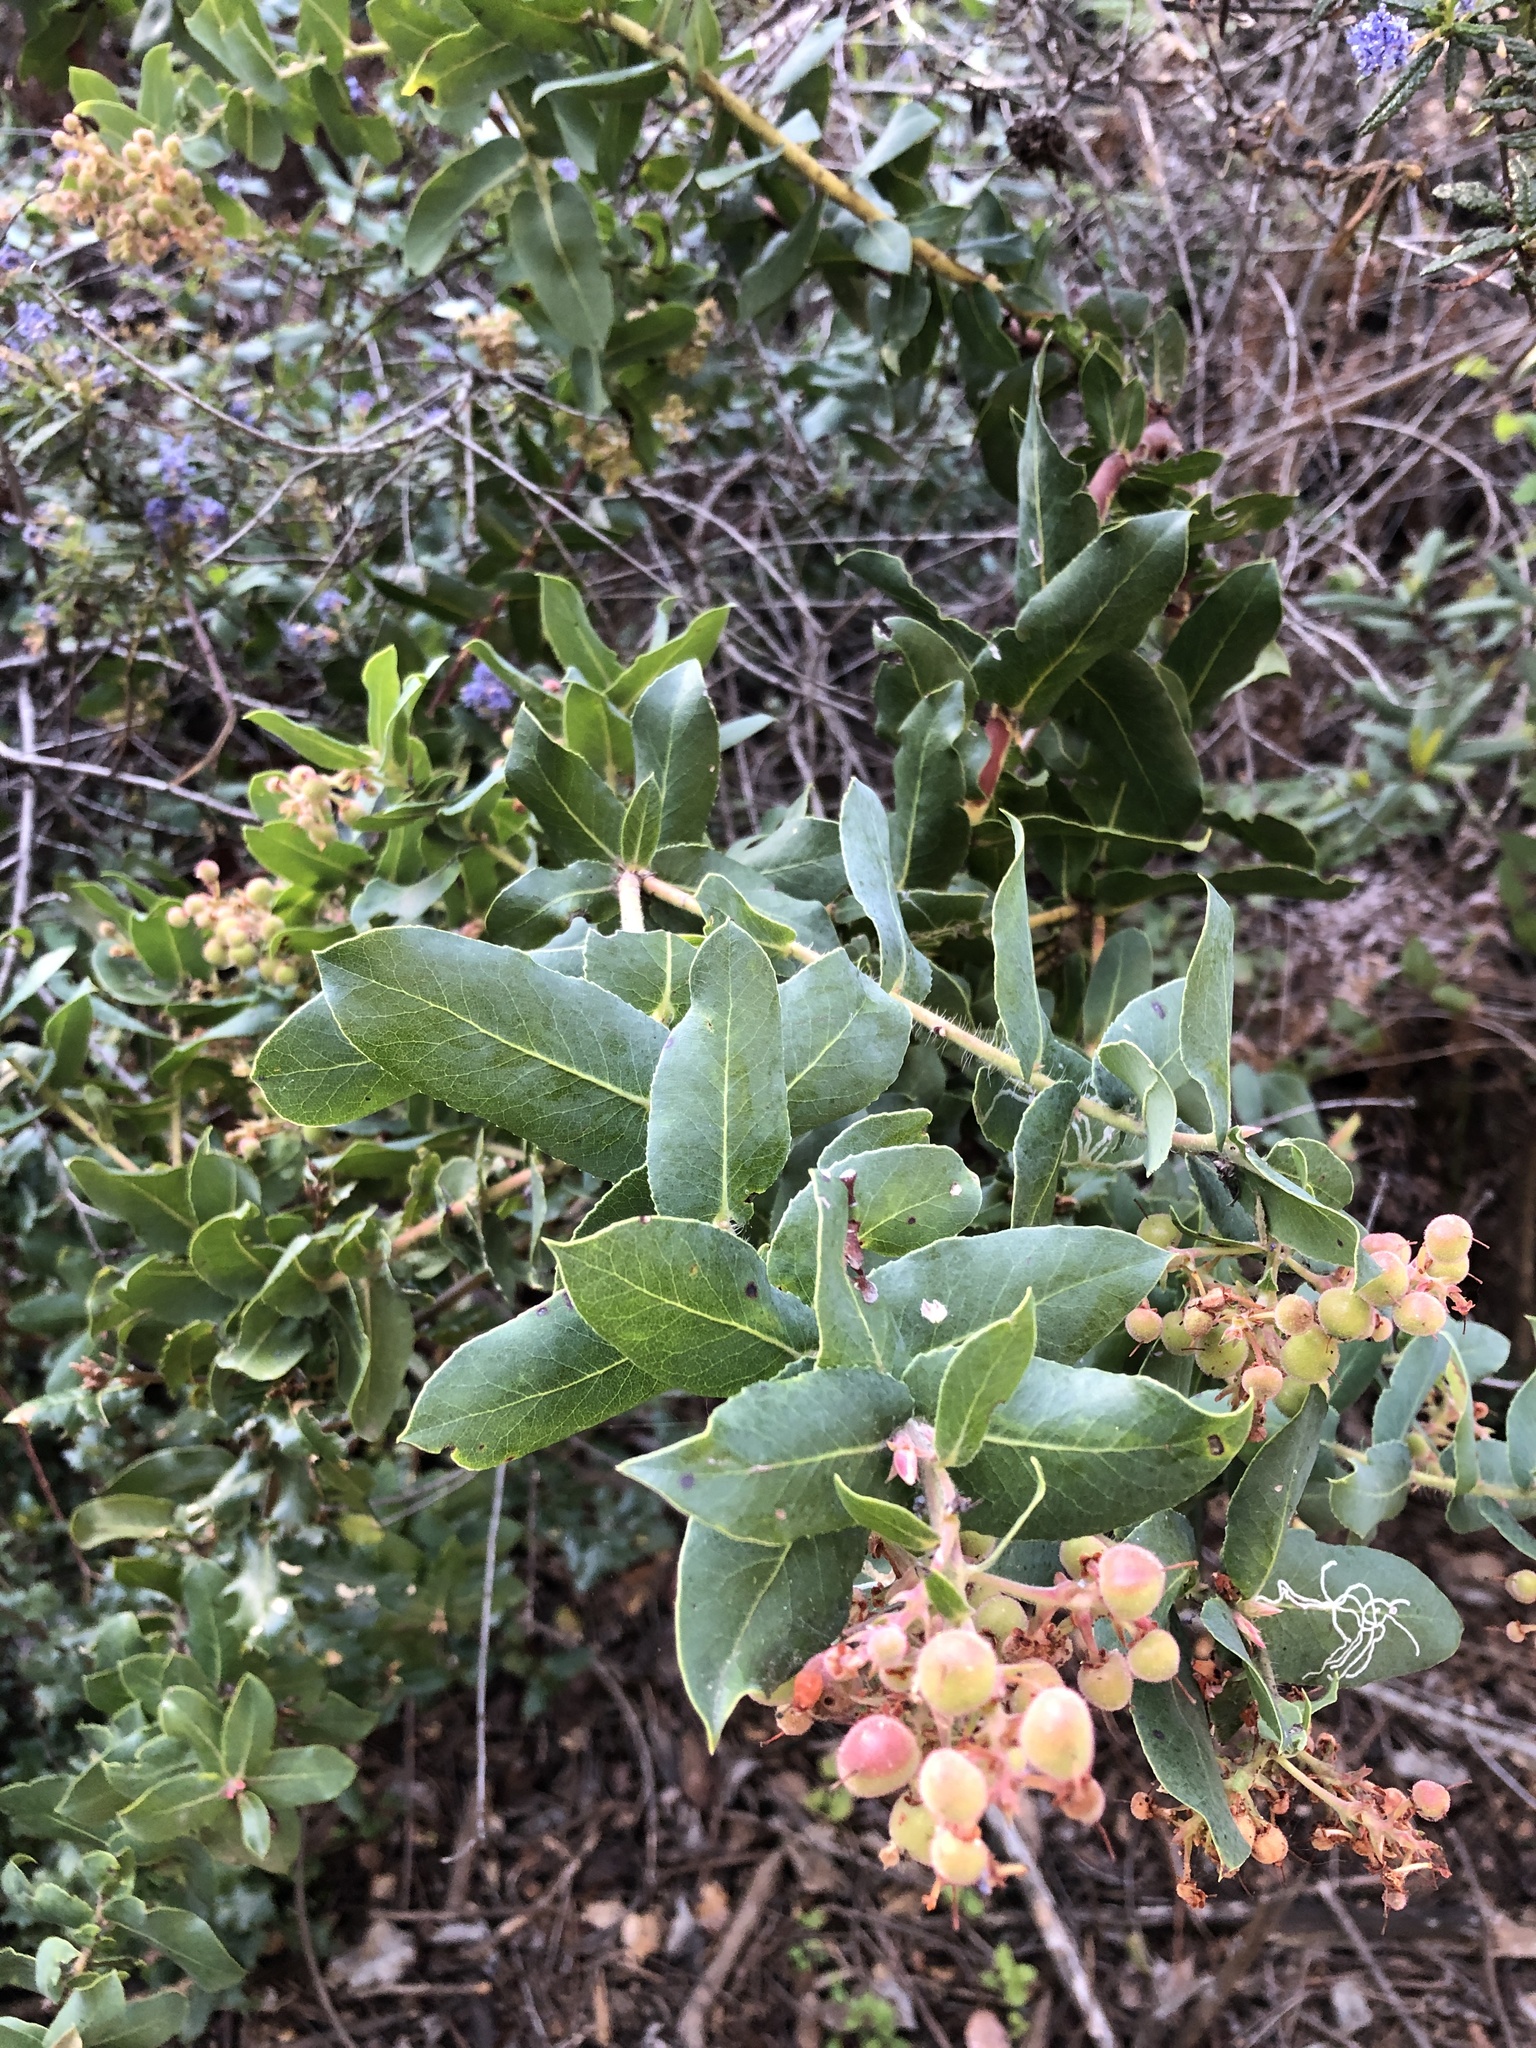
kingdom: Plantae
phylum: Tracheophyta
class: Magnoliopsida
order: Ericales
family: Ericaceae
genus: Arctostaphylos
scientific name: Arctostaphylos andersonii
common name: Santa cruz manzanita
